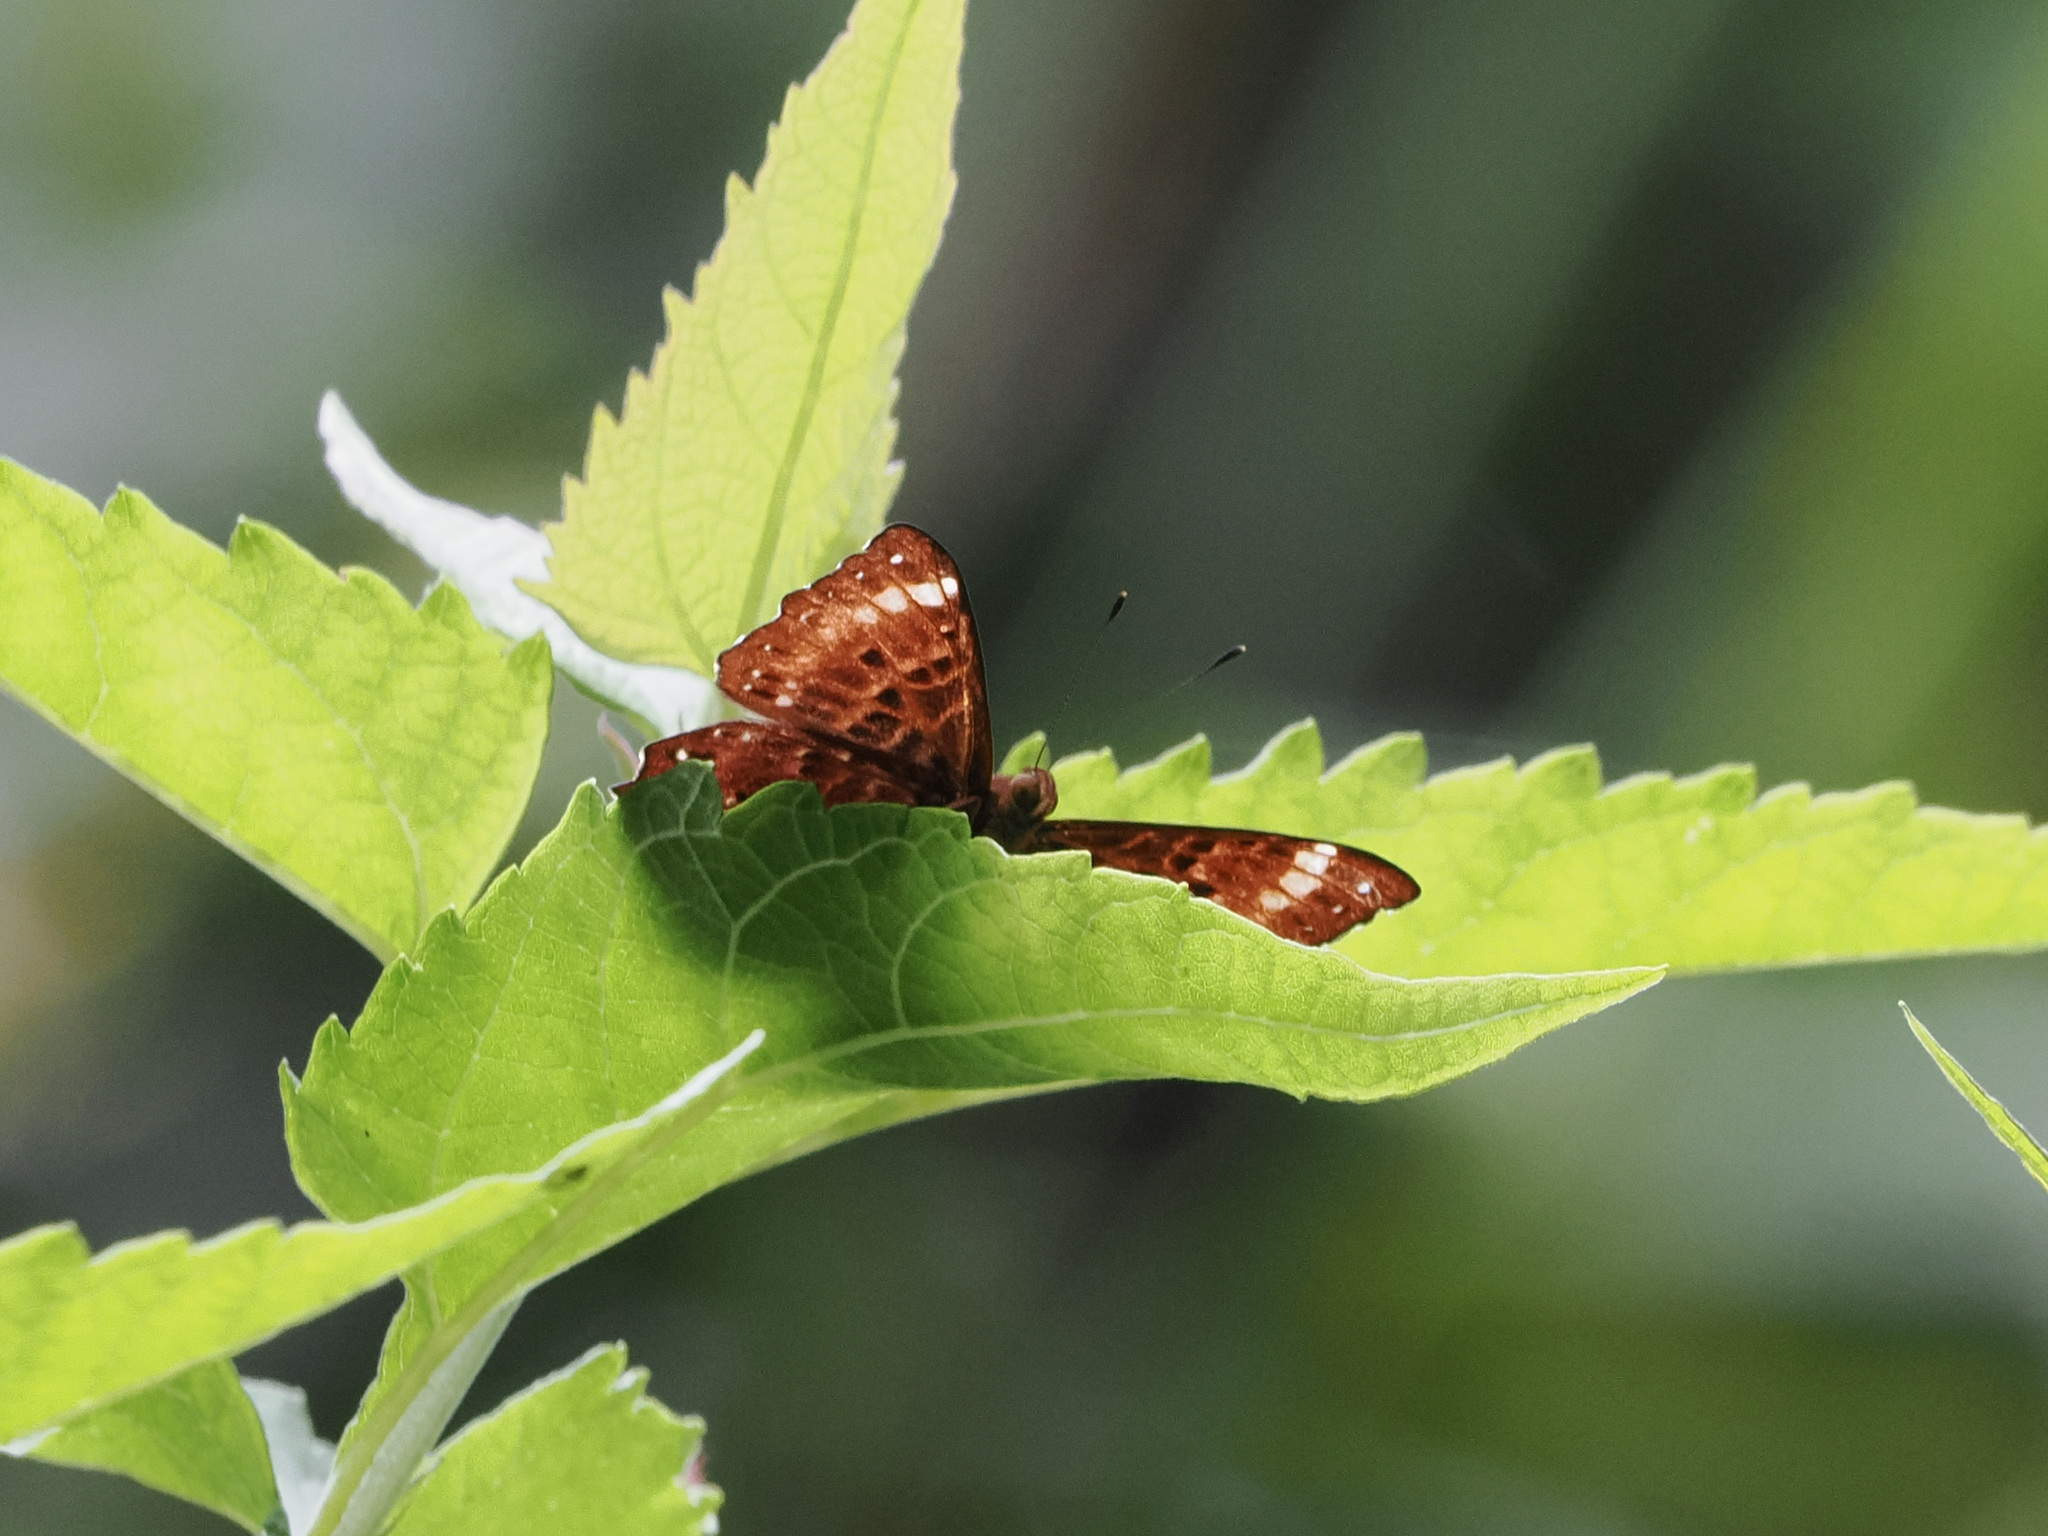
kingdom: Animalia
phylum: Arthropoda
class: Insecta
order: Lepidoptera
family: Riodinidae
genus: Zemeros
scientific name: Zemeros flegyas
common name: Punchinello
